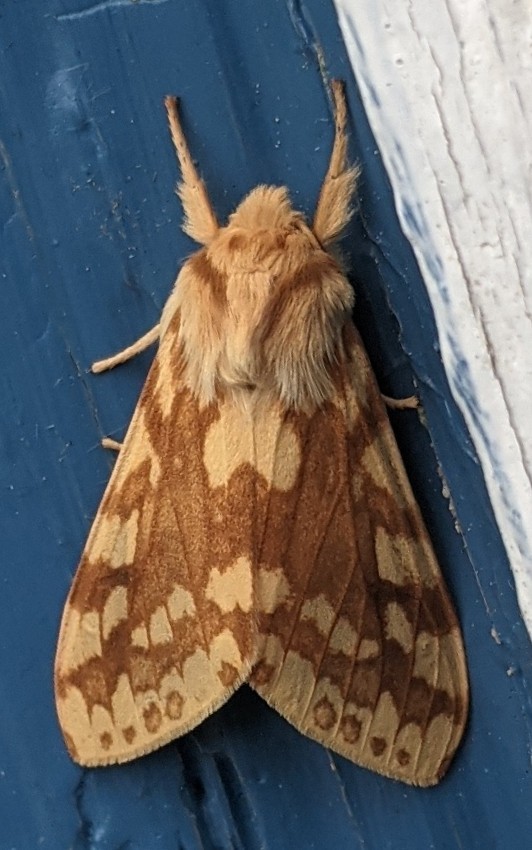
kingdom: Animalia
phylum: Arthropoda
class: Insecta
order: Lepidoptera
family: Erebidae
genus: Lophocampa
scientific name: Lophocampa maculata
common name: Spotted tussock moth
